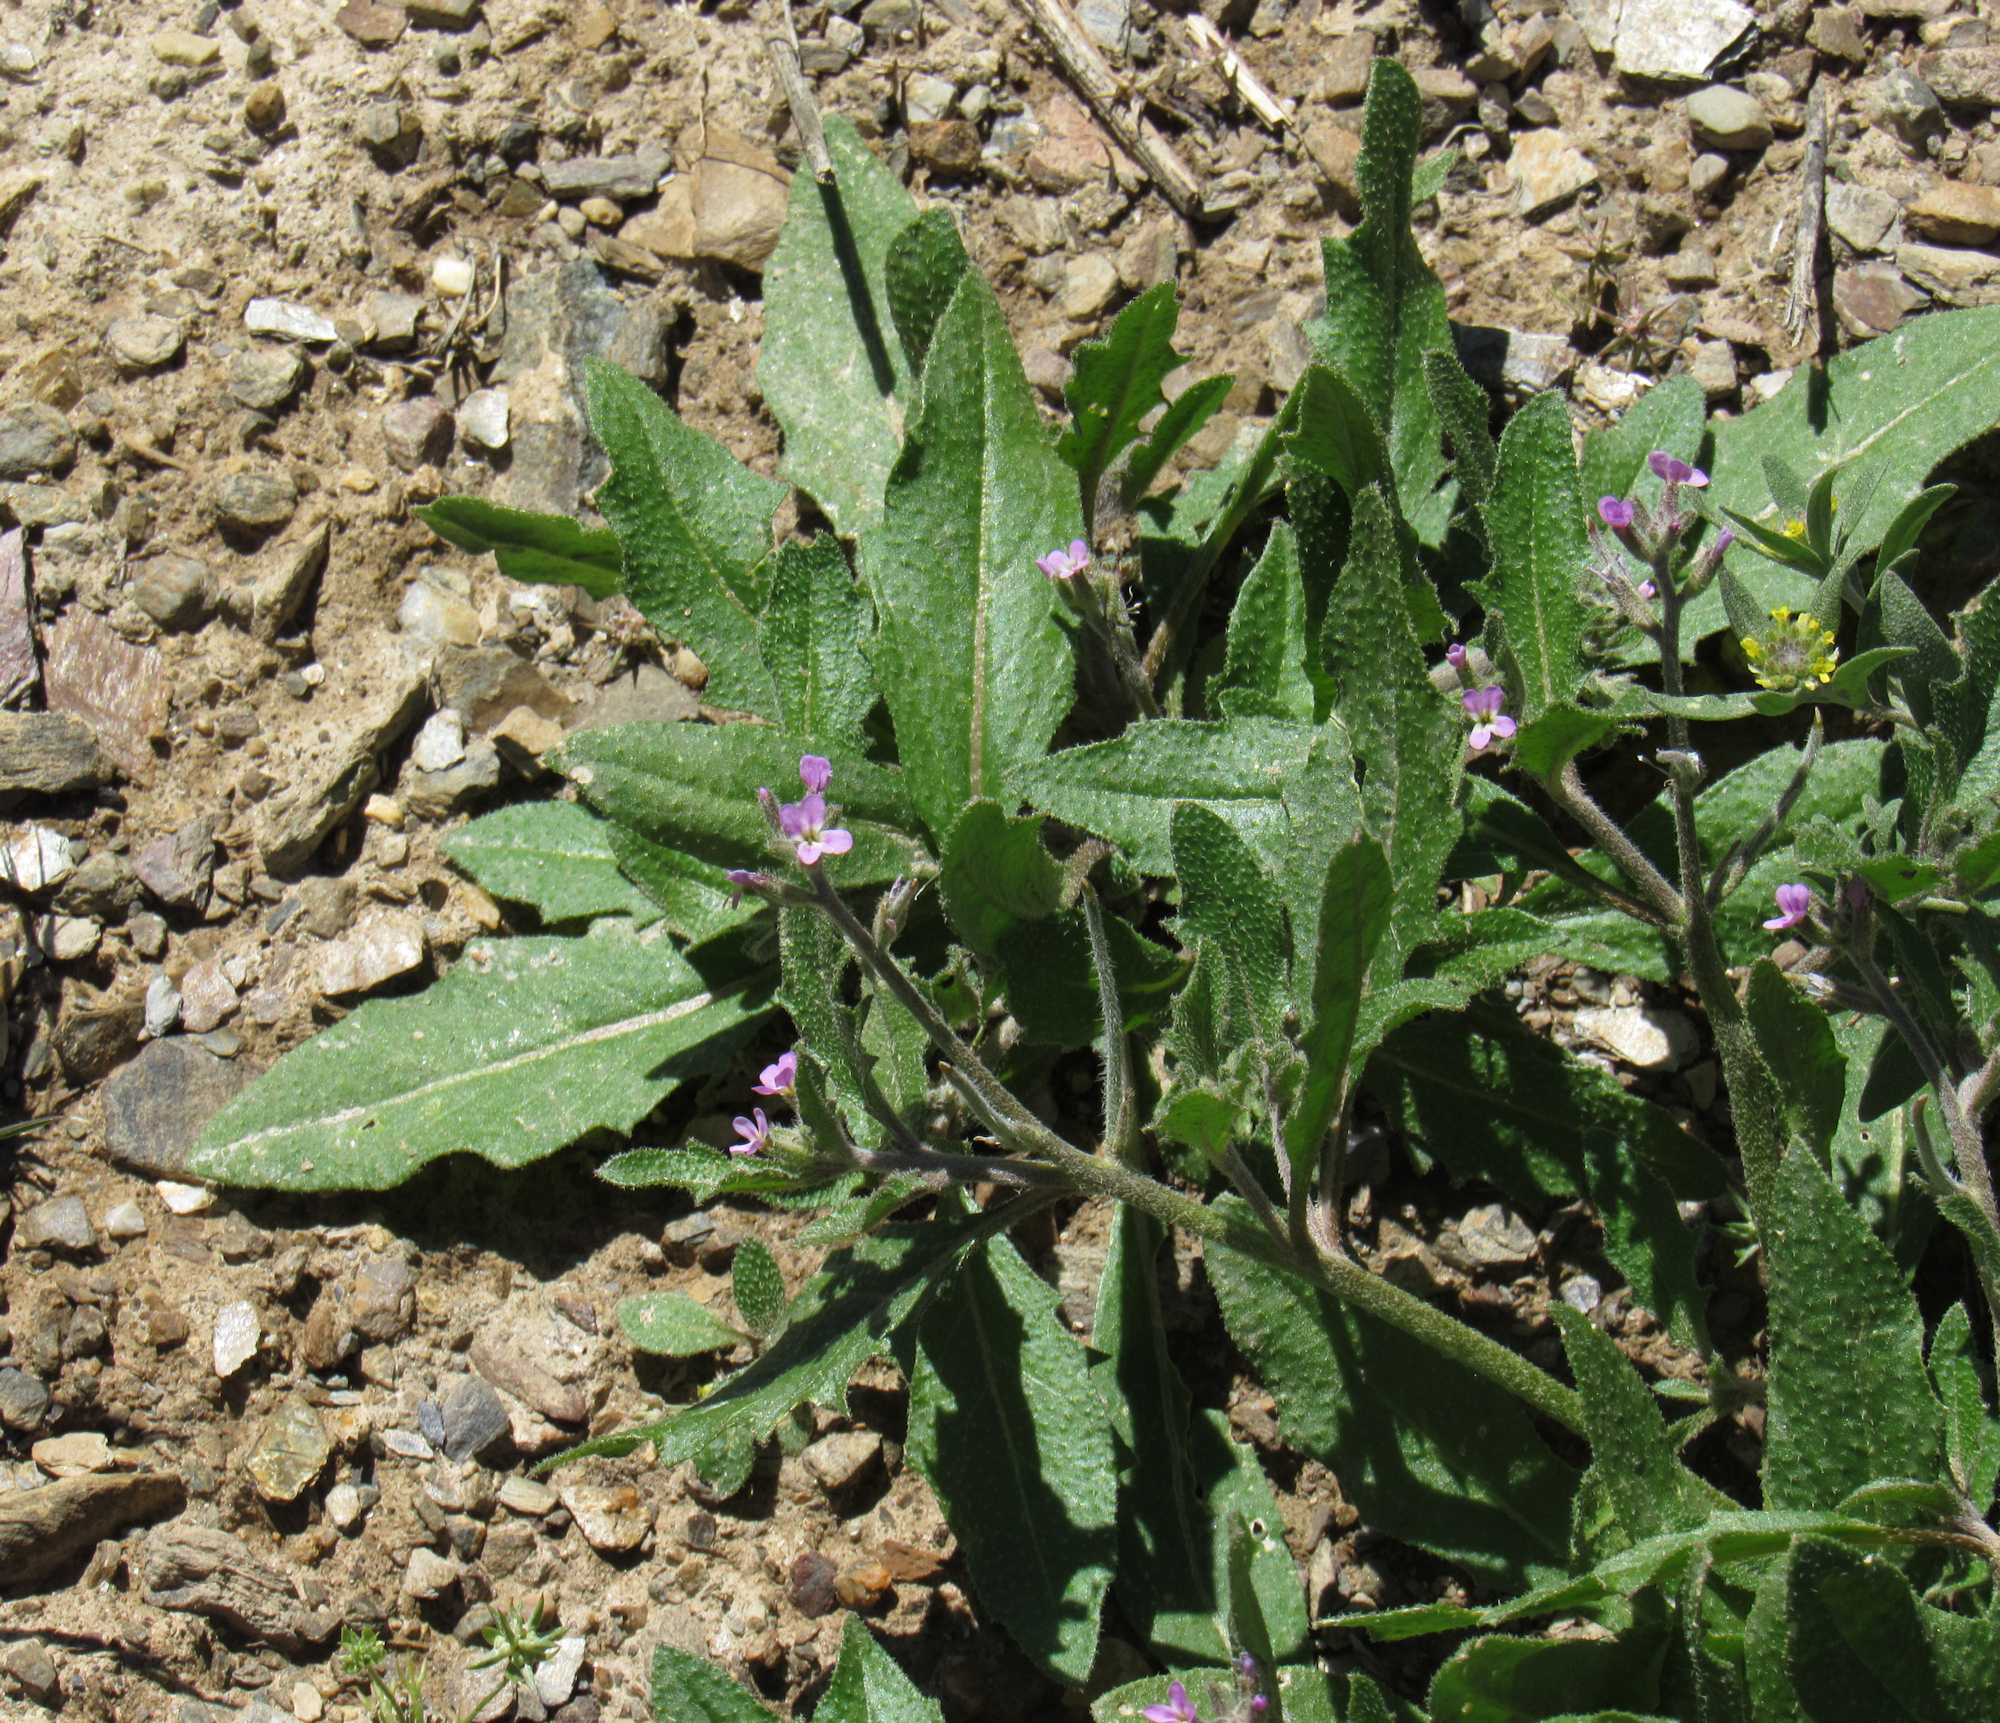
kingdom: Plantae
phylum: Tracheophyta
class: Magnoliopsida
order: Brassicales
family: Brassicaceae
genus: Strigosella
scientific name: Strigosella africana
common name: African mustard
